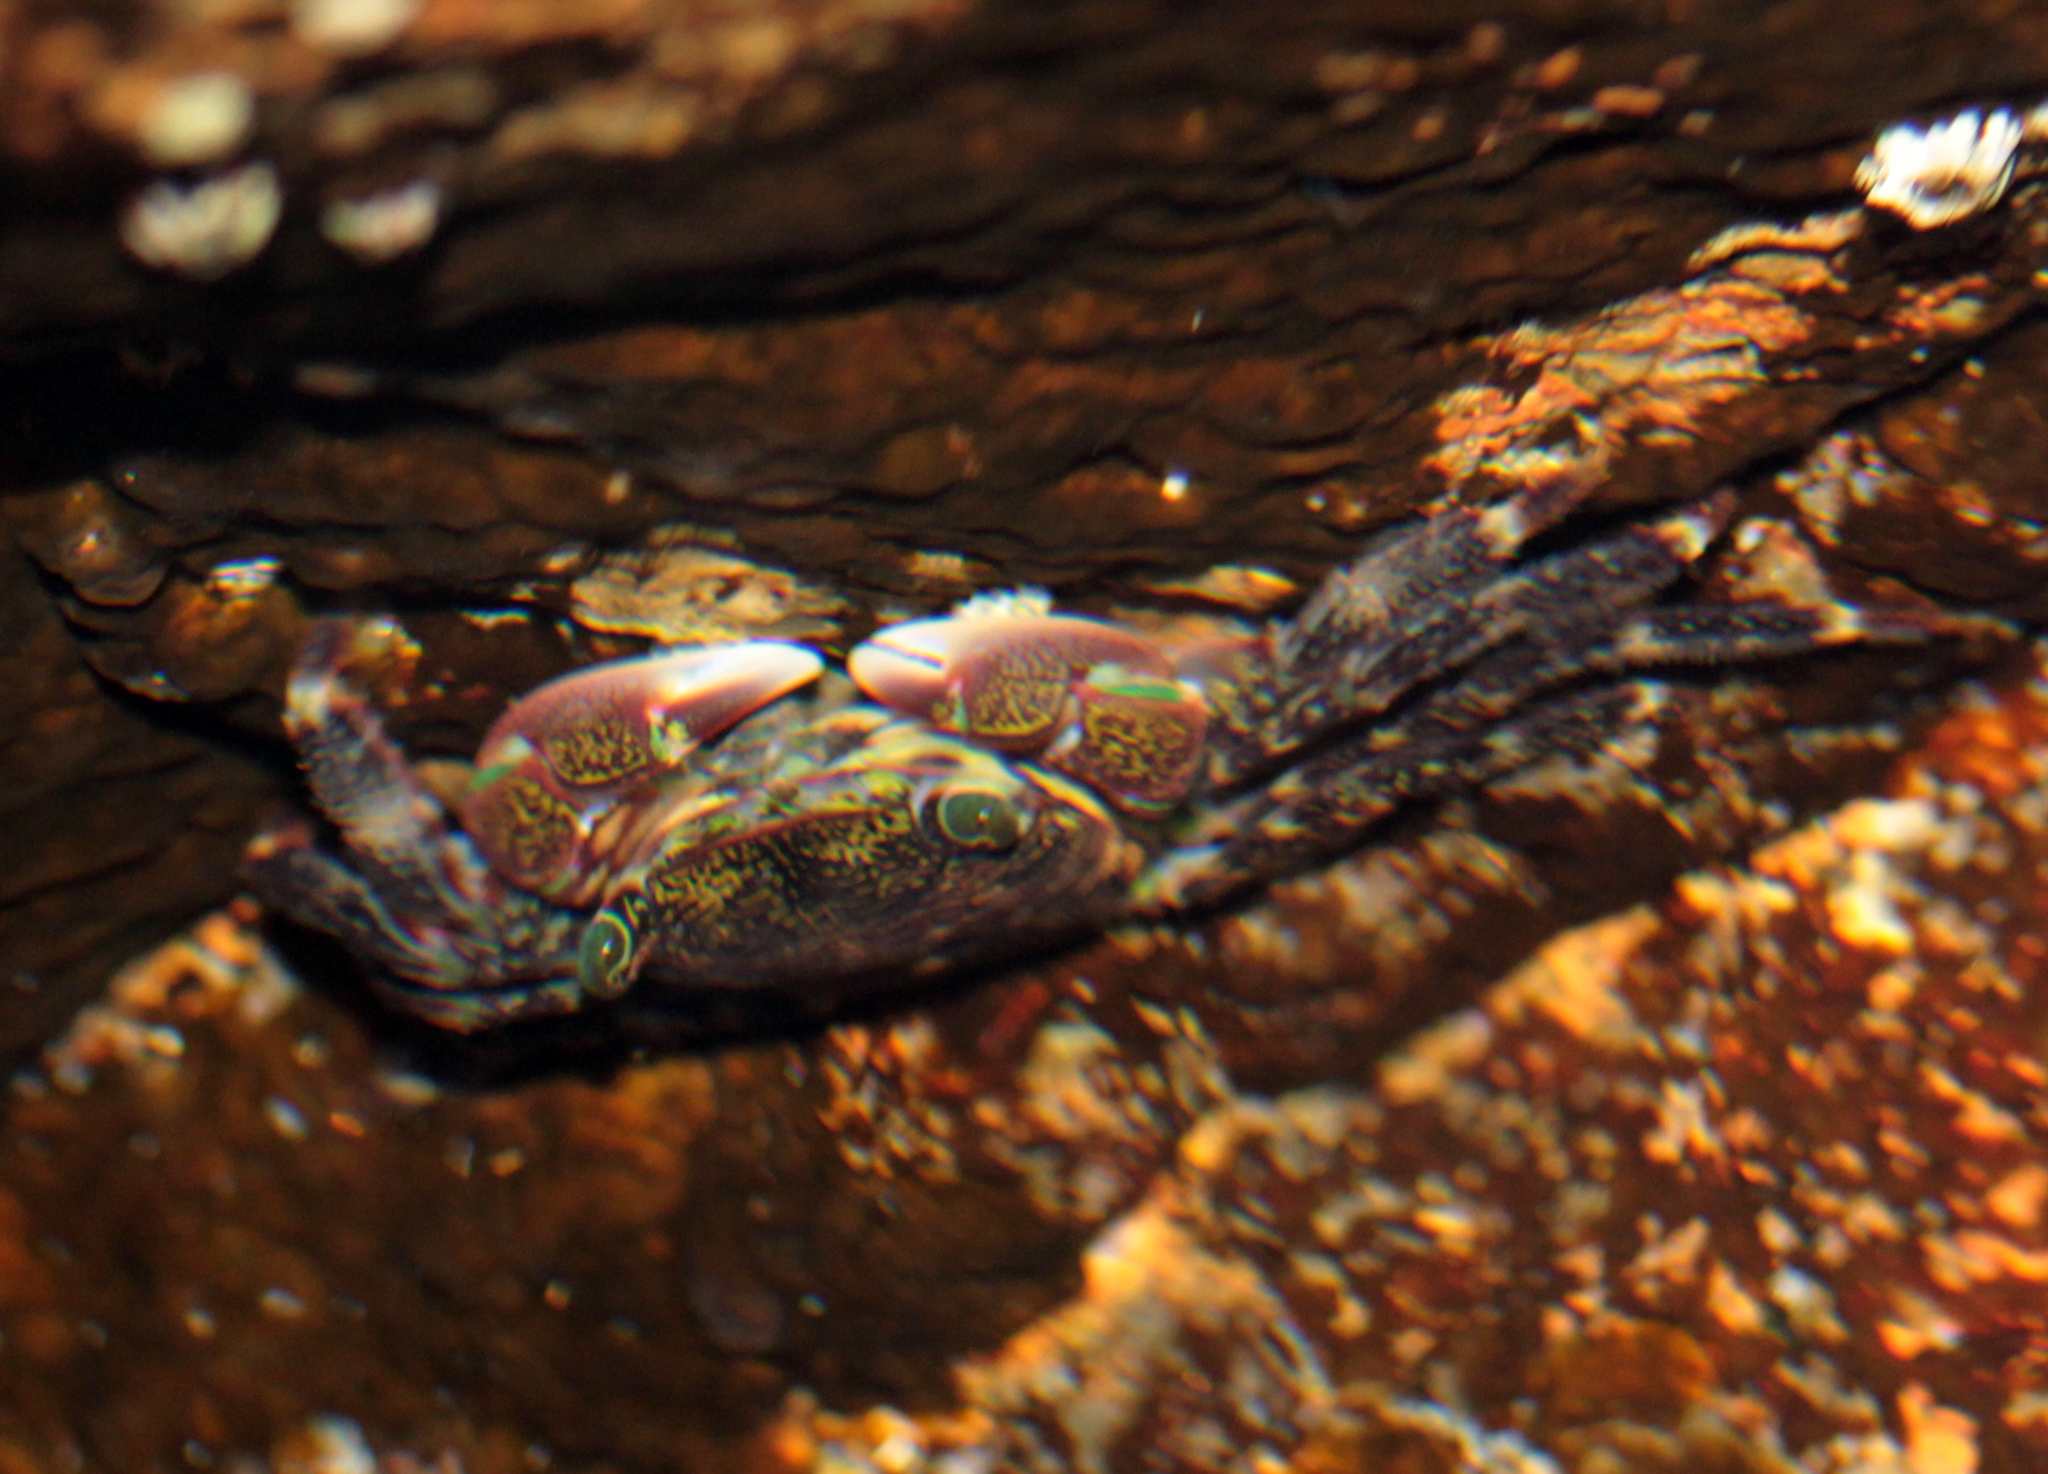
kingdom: Animalia
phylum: Arthropoda
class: Malacostraca
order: Decapoda
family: Grapsidae
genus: Pachygrapsus
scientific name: Pachygrapsus crassipes
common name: Striped shore crab
